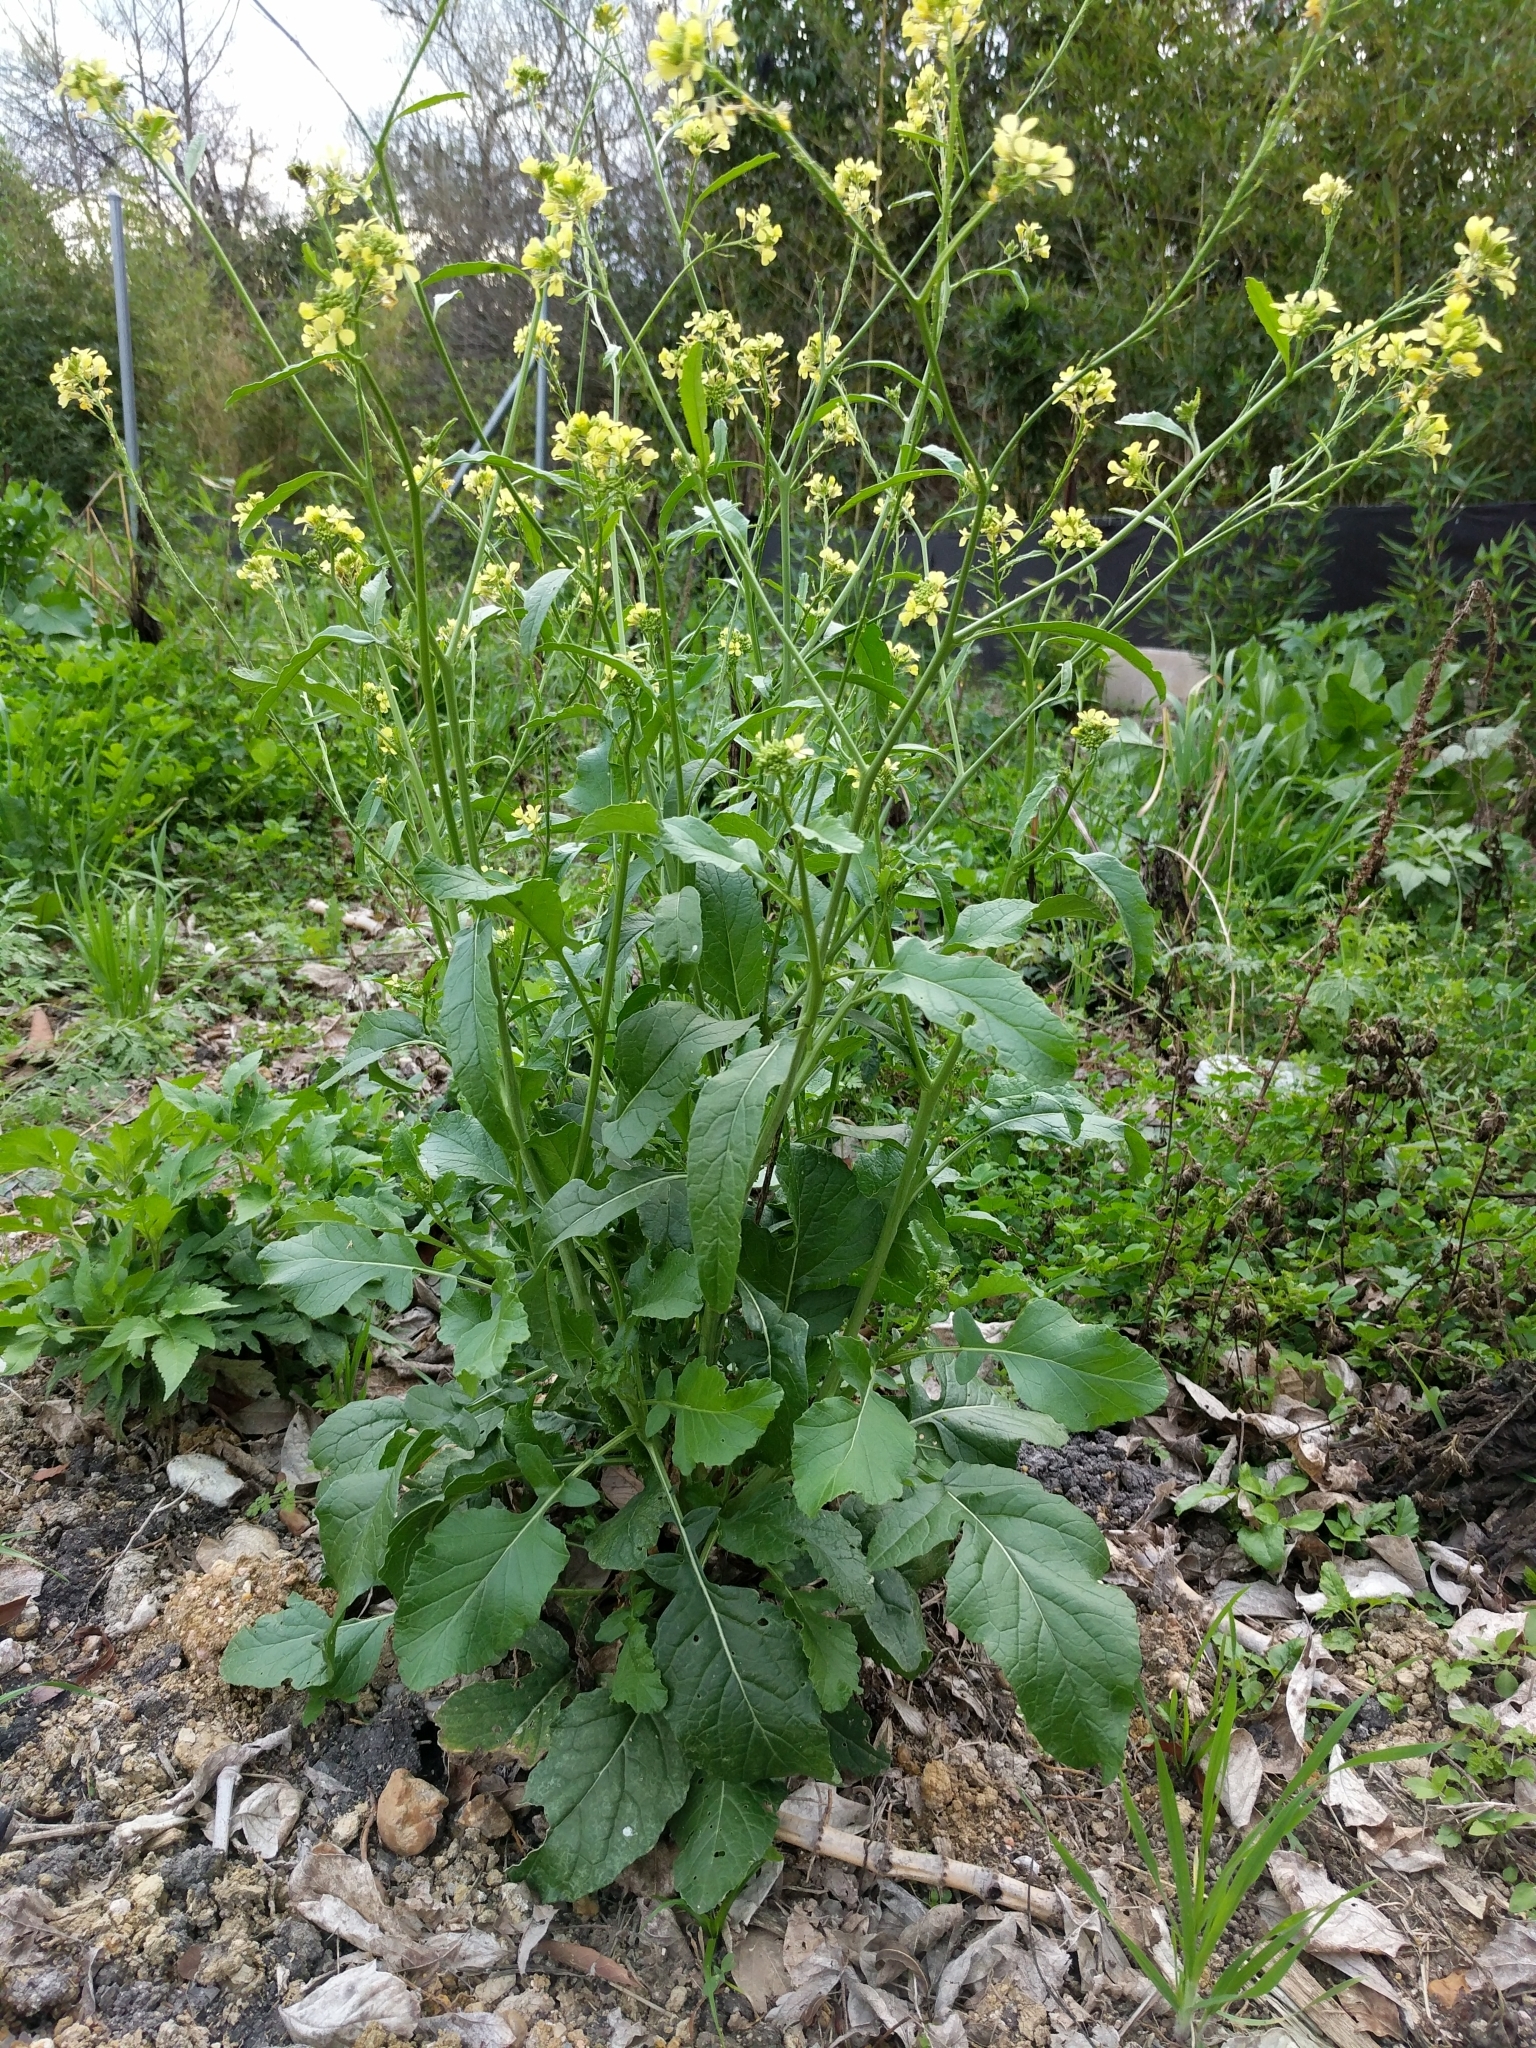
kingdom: Plantae
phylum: Tracheophyta
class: Magnoliopsida
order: Brassicales
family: Brassicaceae
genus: Rapistrum
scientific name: Rapistrum rugosum
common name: Annual bastardcabbage
